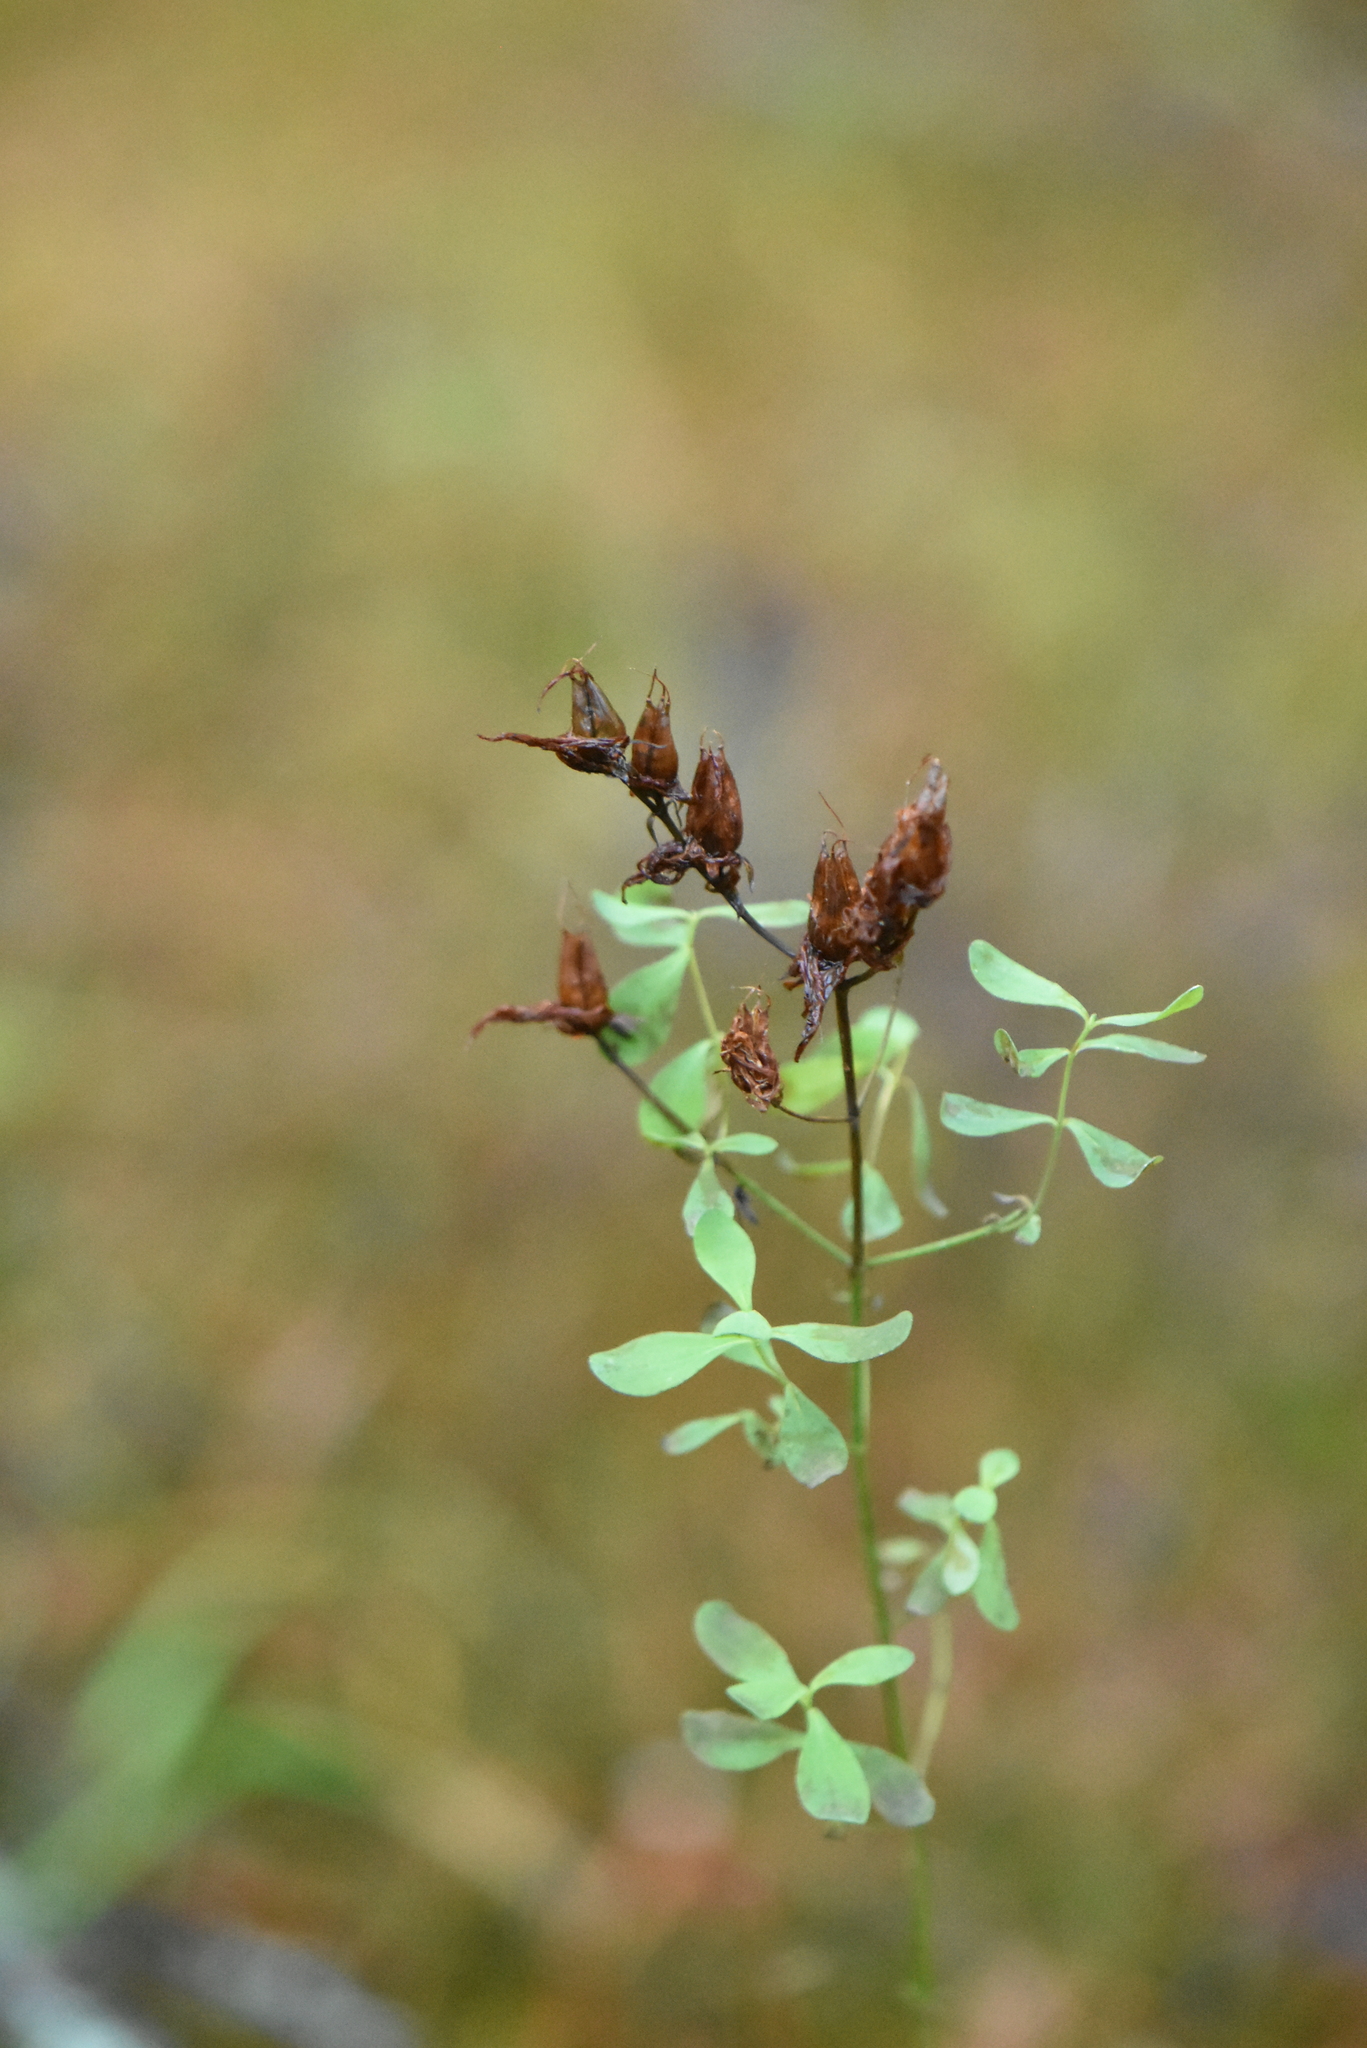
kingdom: Plantae
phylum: Tracheophyta
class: Magnoliopsida
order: Malpighiales
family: Hypericaceae
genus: Hypericum
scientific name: Hypericum perforatum
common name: Common st. johnswort
